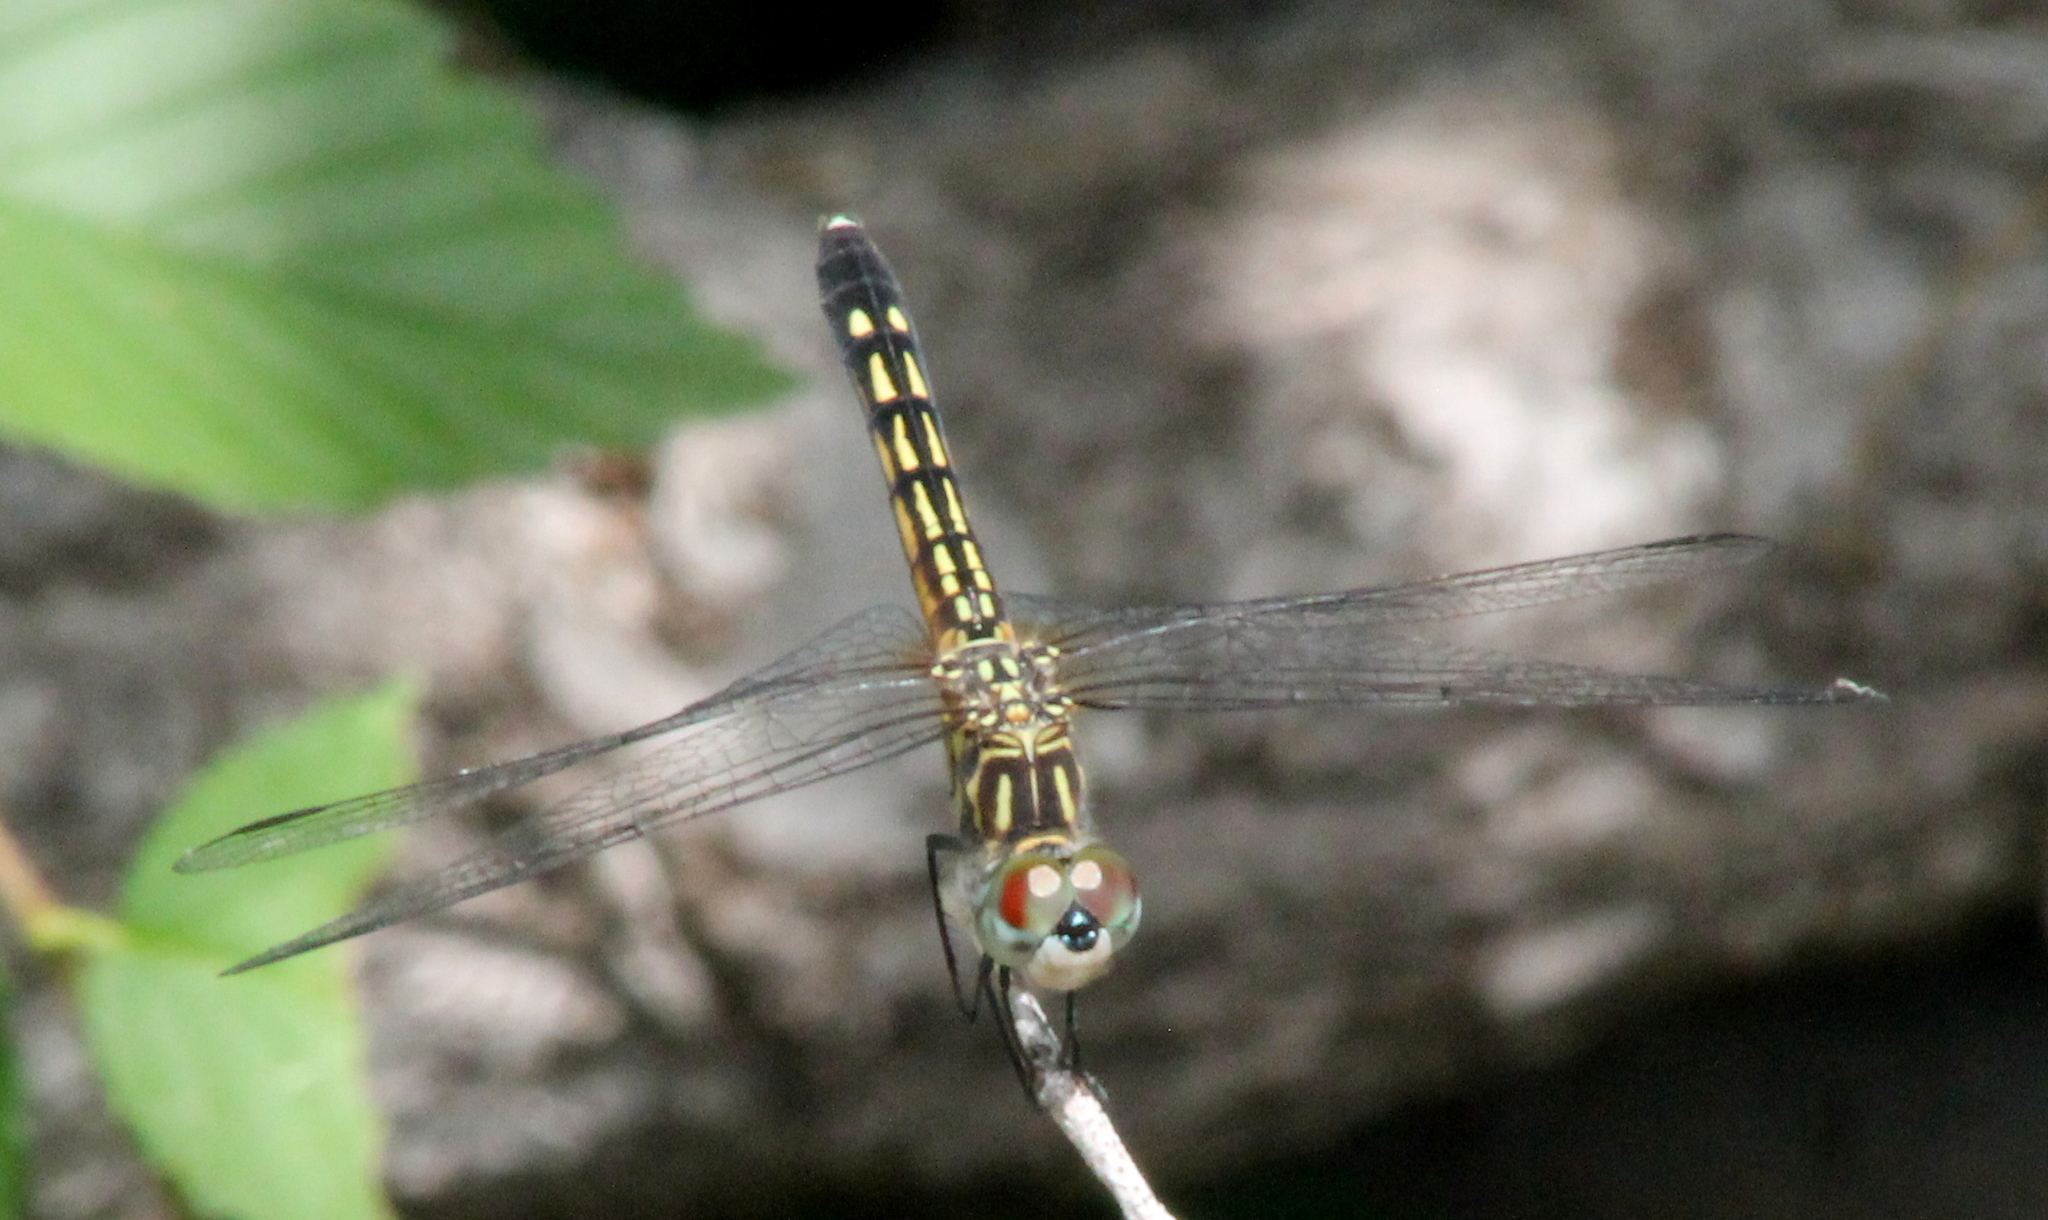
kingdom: Animalia
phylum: Arthropoda
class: Insecta
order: Odonata
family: Libellulidae
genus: Pachydiplax
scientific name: Pachydiplax longipennis
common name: Blue dasher
